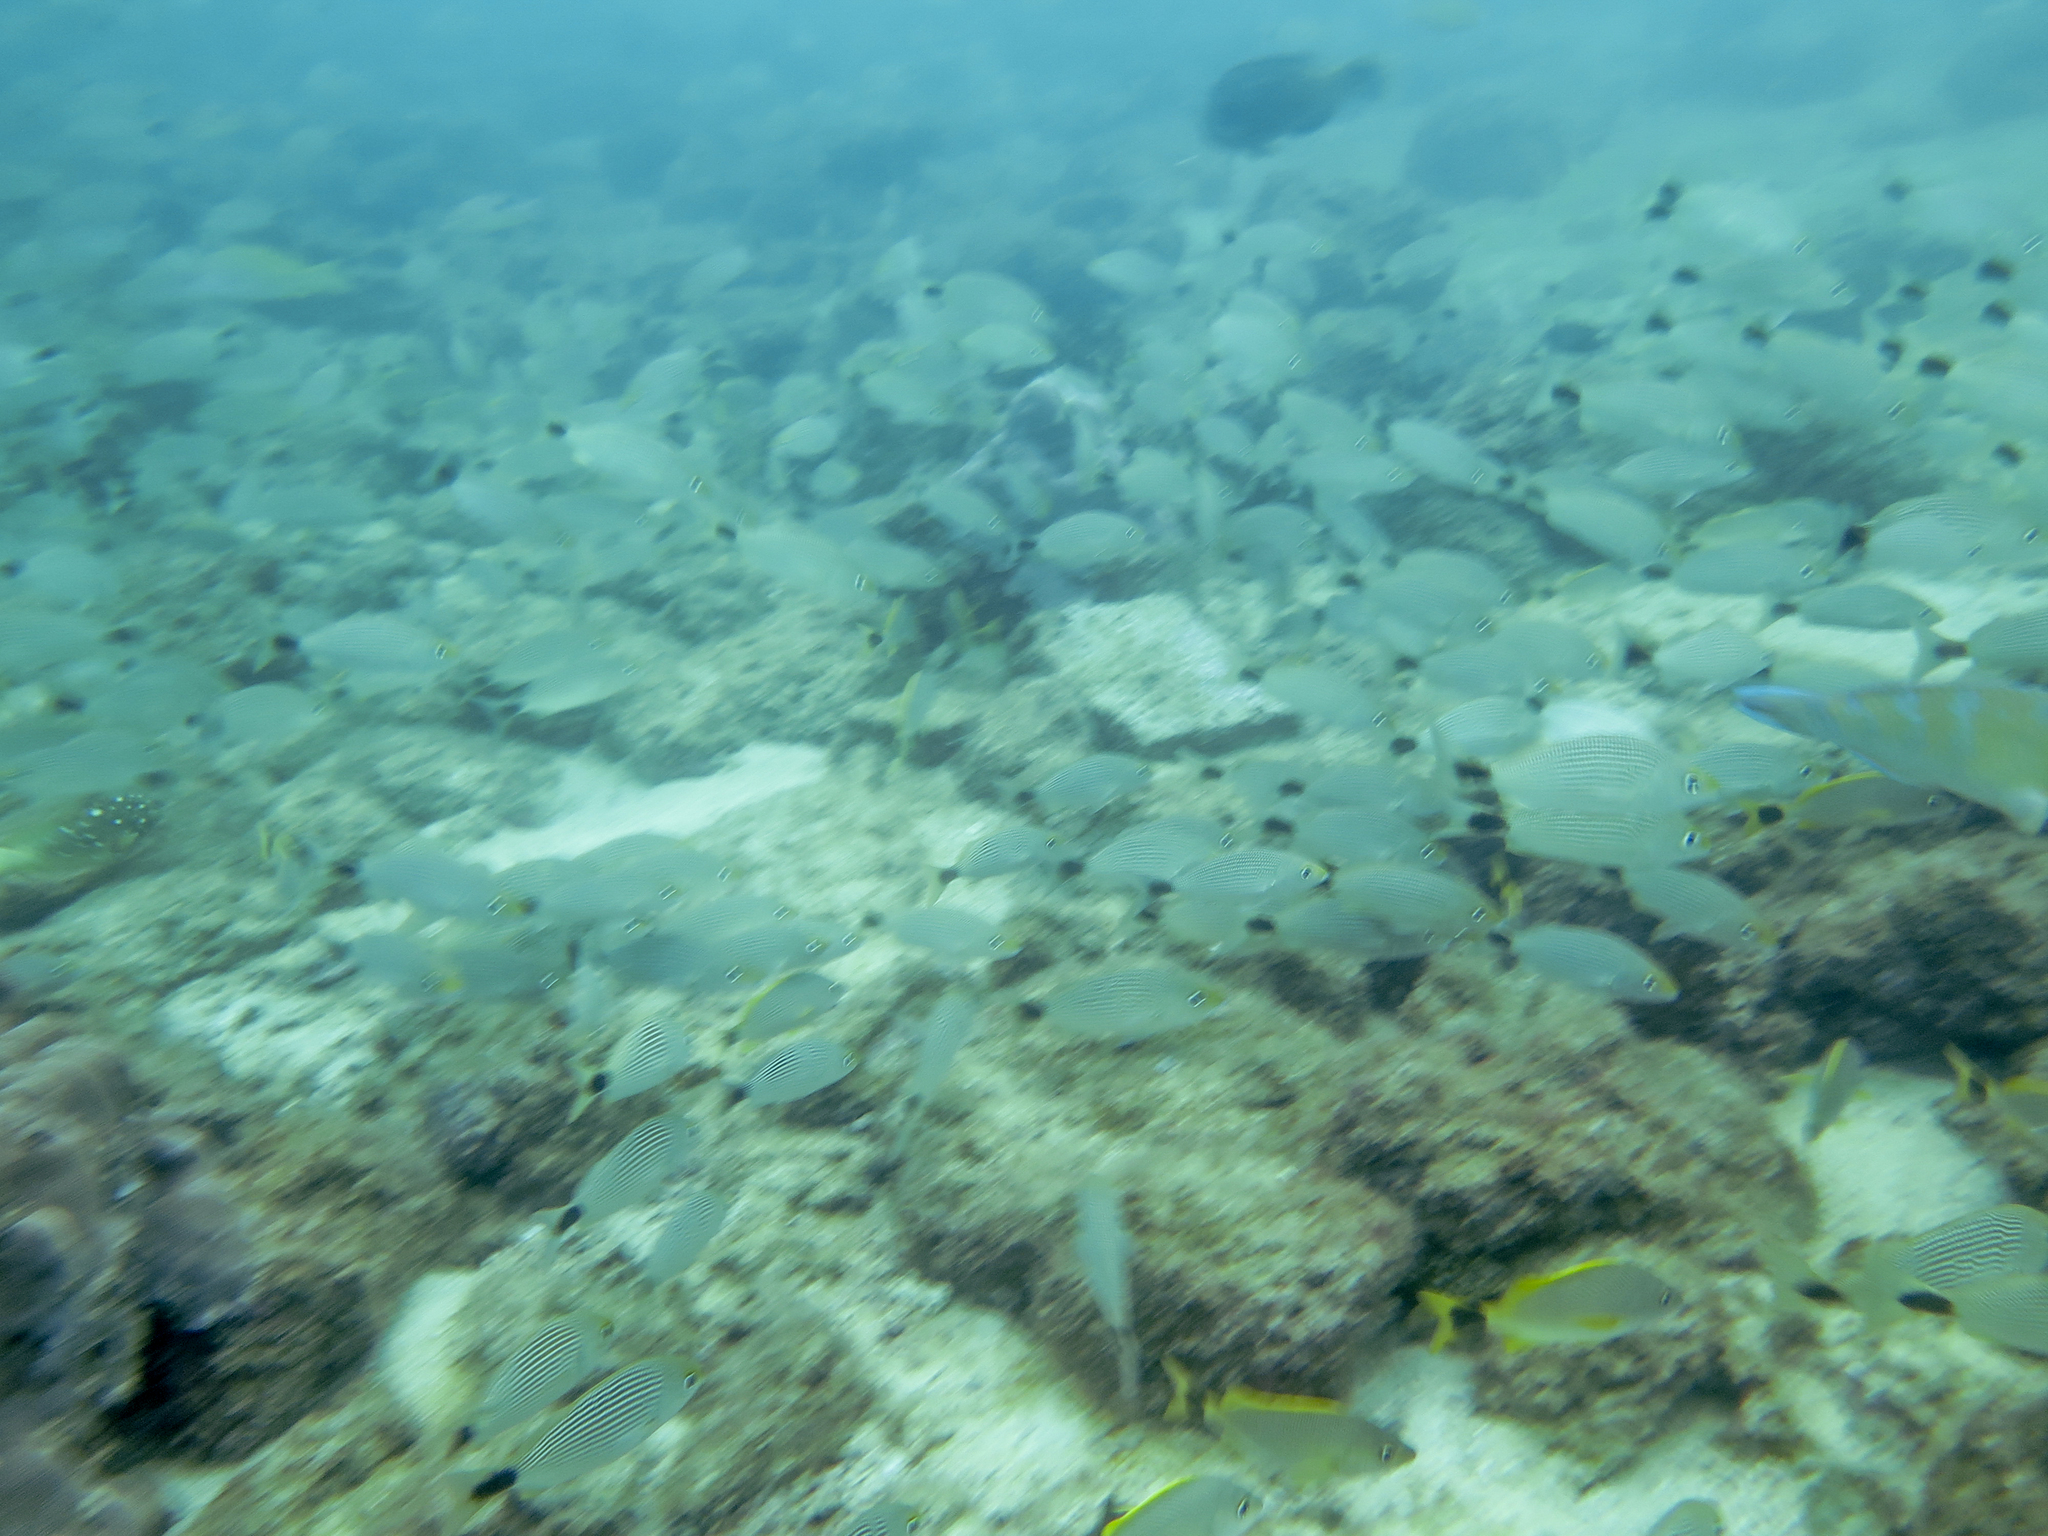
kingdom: Animalia
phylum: Chordata
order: Perciformes
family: Haemulidae
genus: Haemulon
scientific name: Haemulon maculicauda
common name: Spottail grunt
